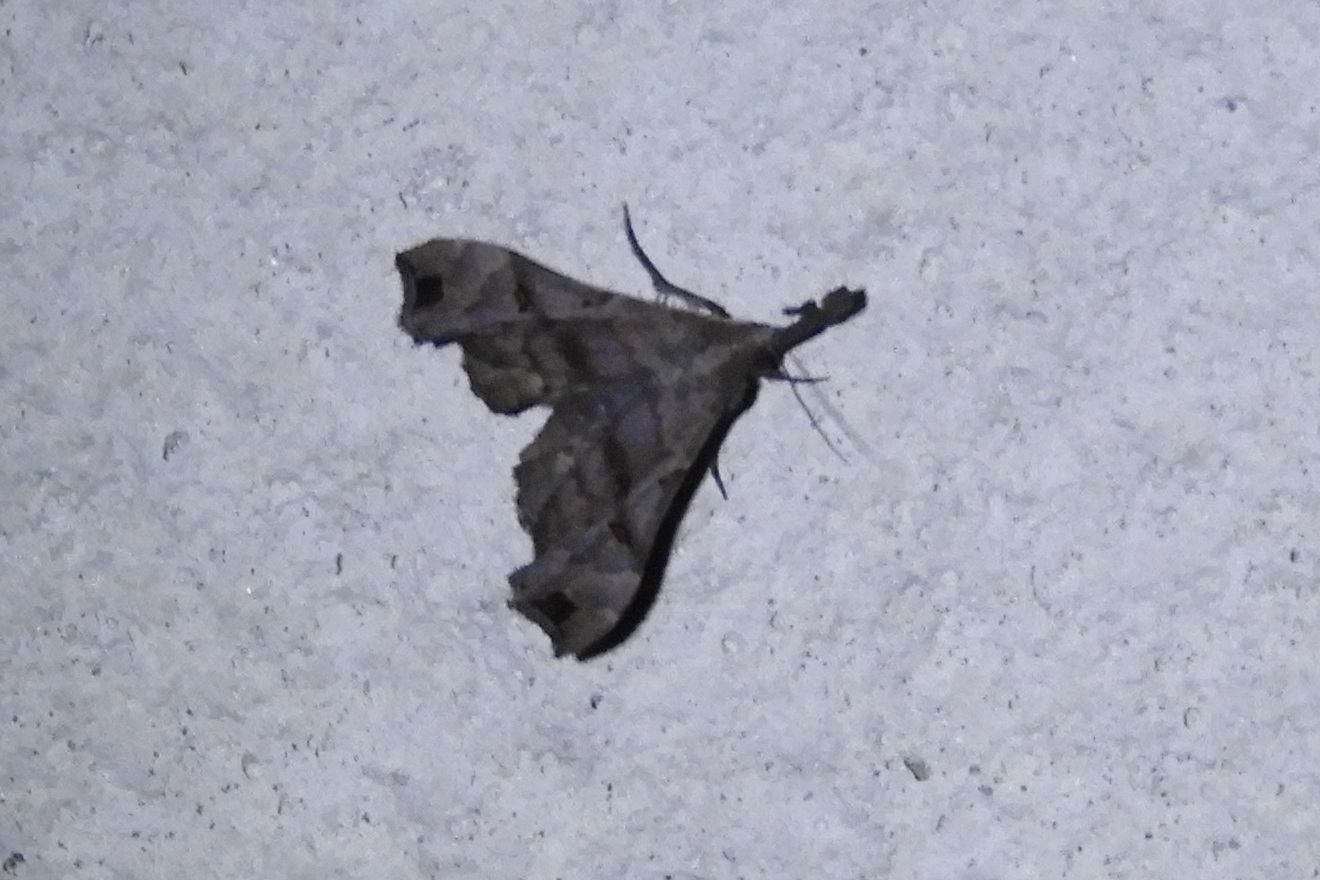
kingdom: Animalia
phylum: Arthropoda
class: Insecta
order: Lepidoptera
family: Erebidae
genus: Palthis
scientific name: Palthis asopialis
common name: Faint-spotted palthis moth
